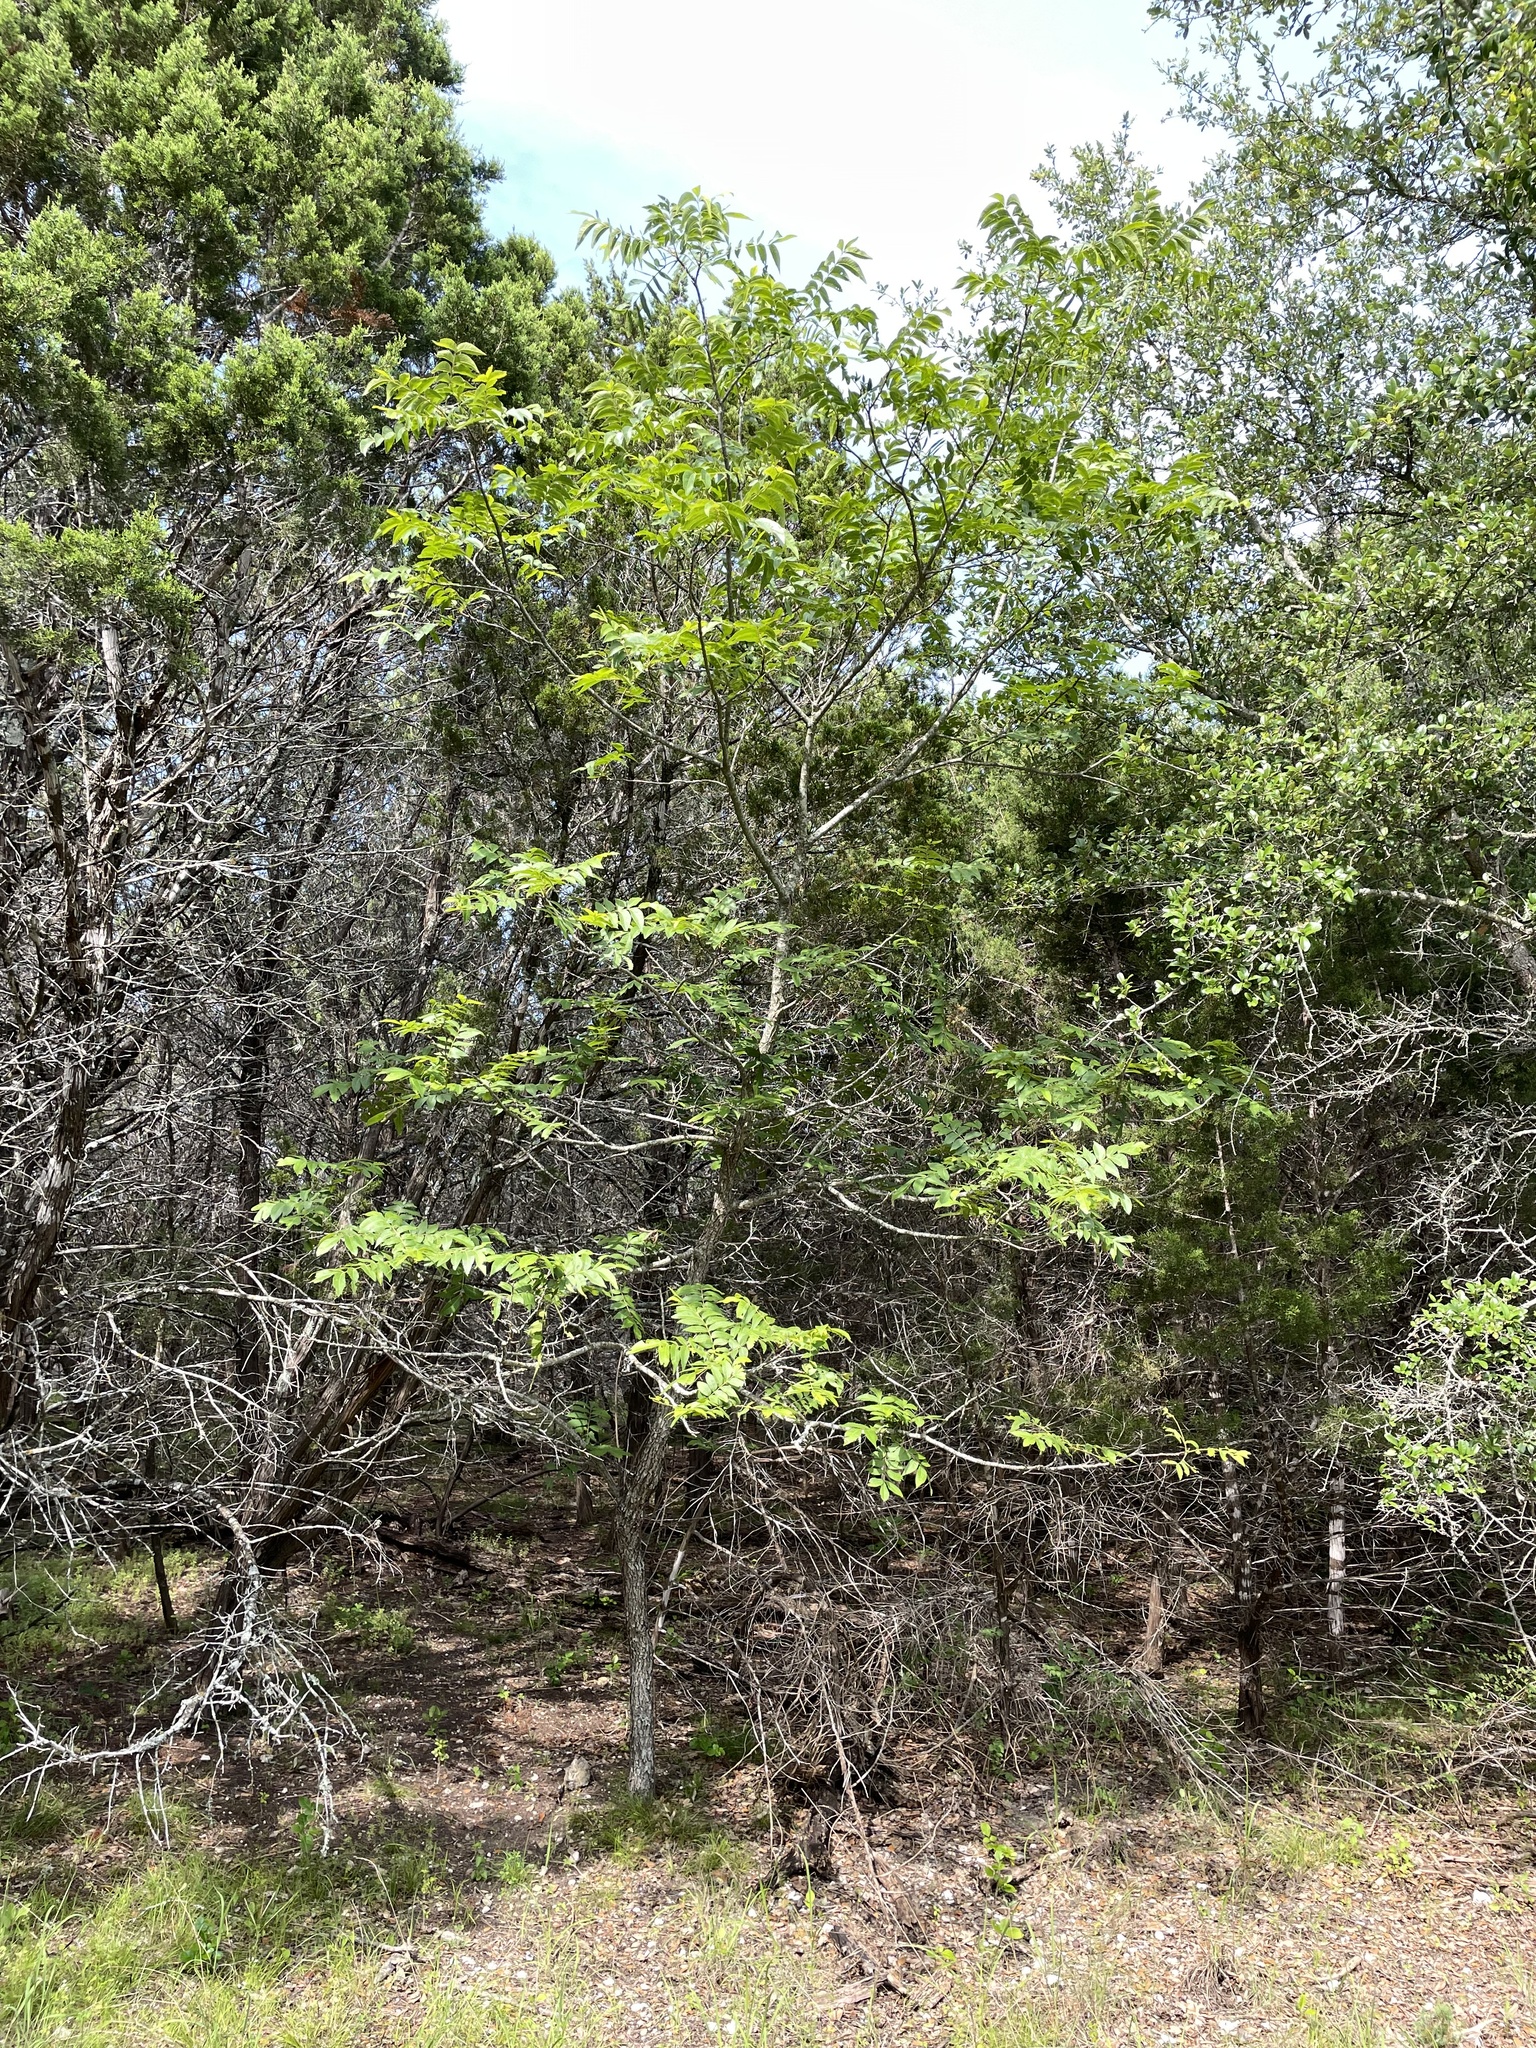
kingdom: Plantae
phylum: Tracheophyta
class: Magnoliopsida
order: Fagales
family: Juglandaceae
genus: Carya
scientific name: Carya illinoinensis
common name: Pecan
